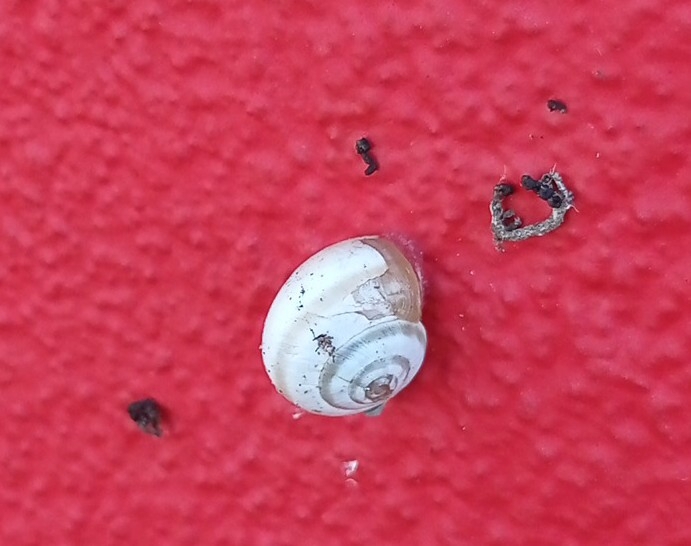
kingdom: Animalia
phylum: Mollusca
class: Gastropoda
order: Stylommatophora
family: Helicidae
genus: Theba
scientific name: Theba pisana
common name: White snail
